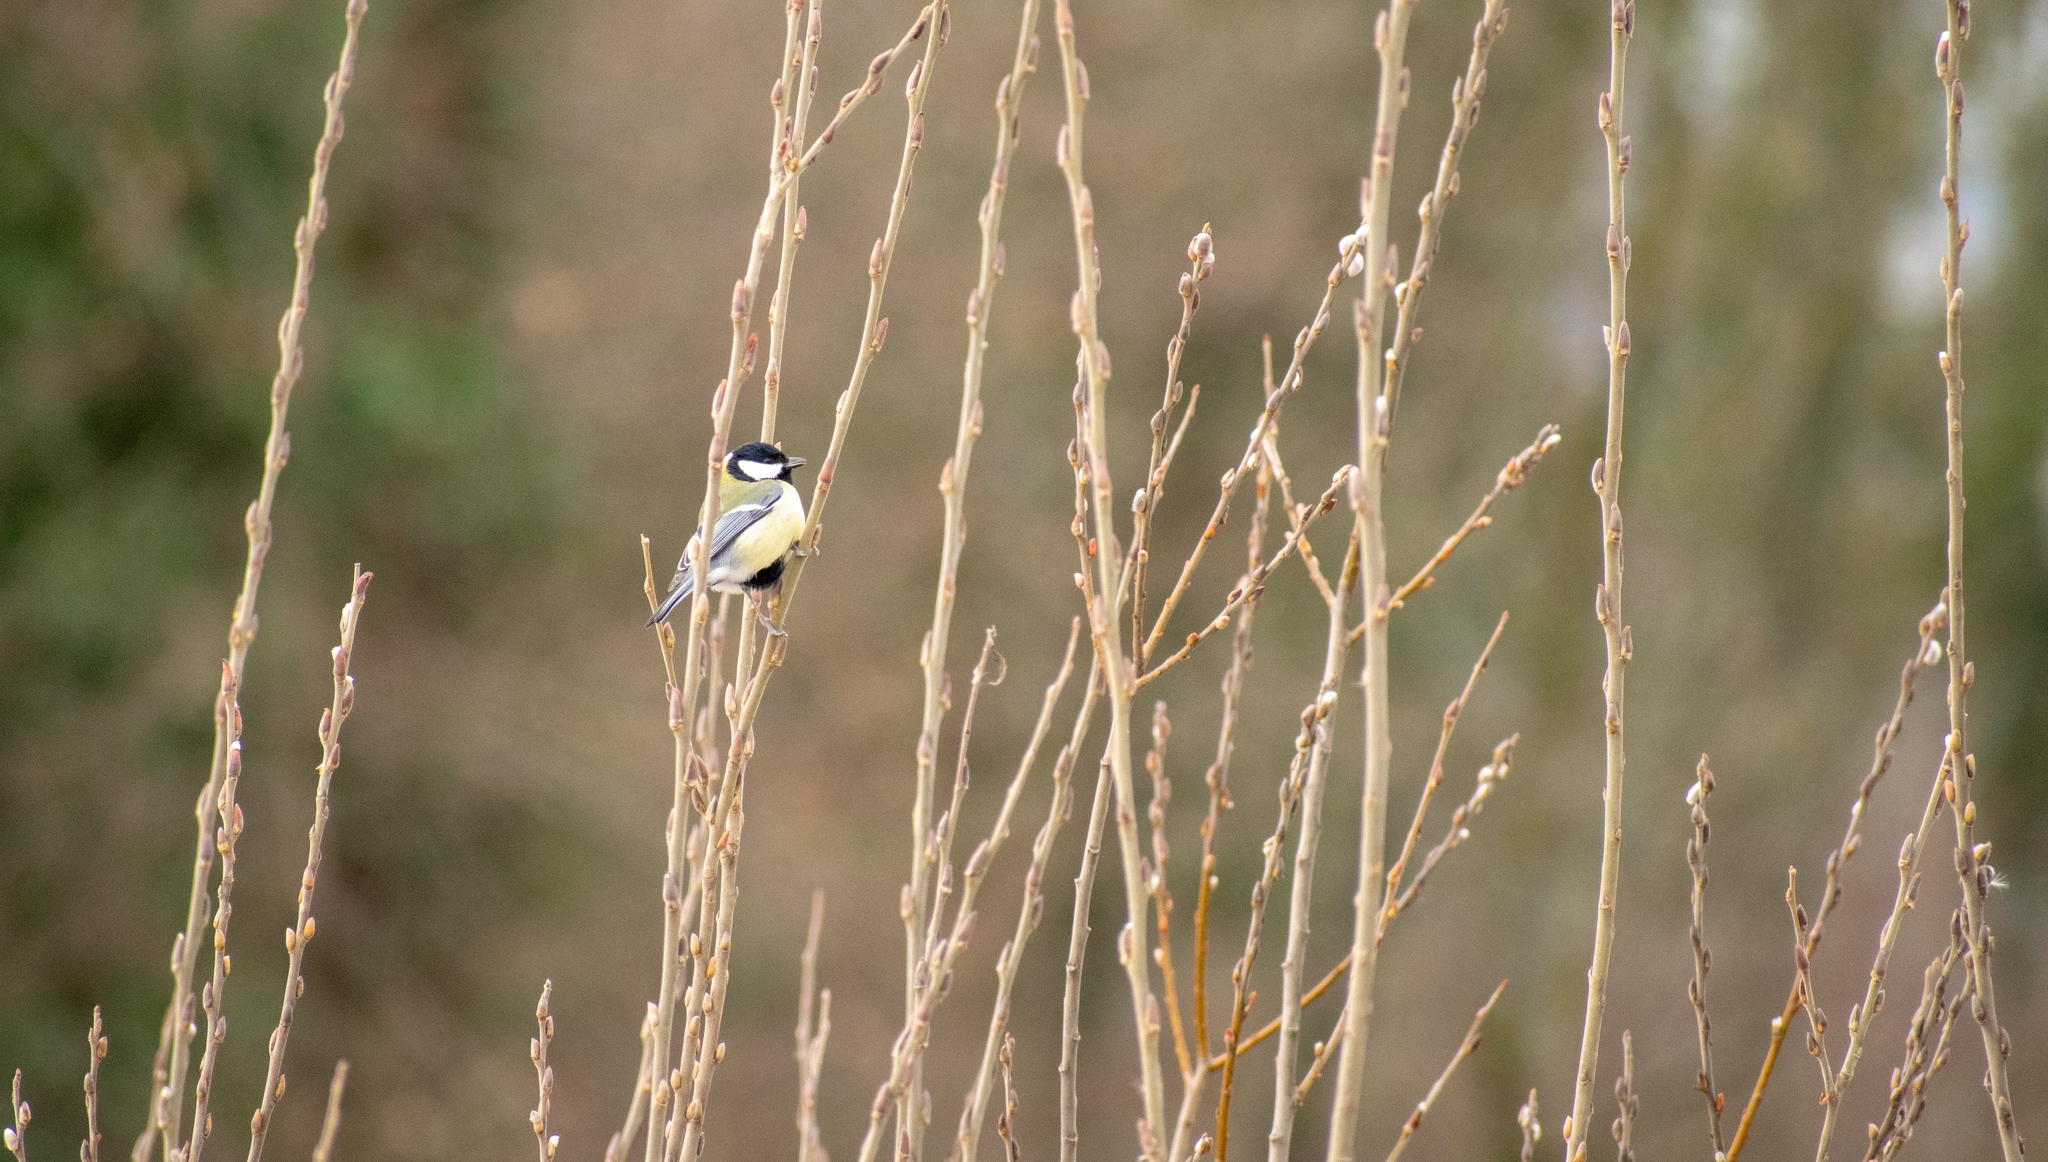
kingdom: Animalia
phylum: Chordata
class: Aves
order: Passeriformes
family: Paridae
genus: Parus
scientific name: Parus major
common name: Great tit
